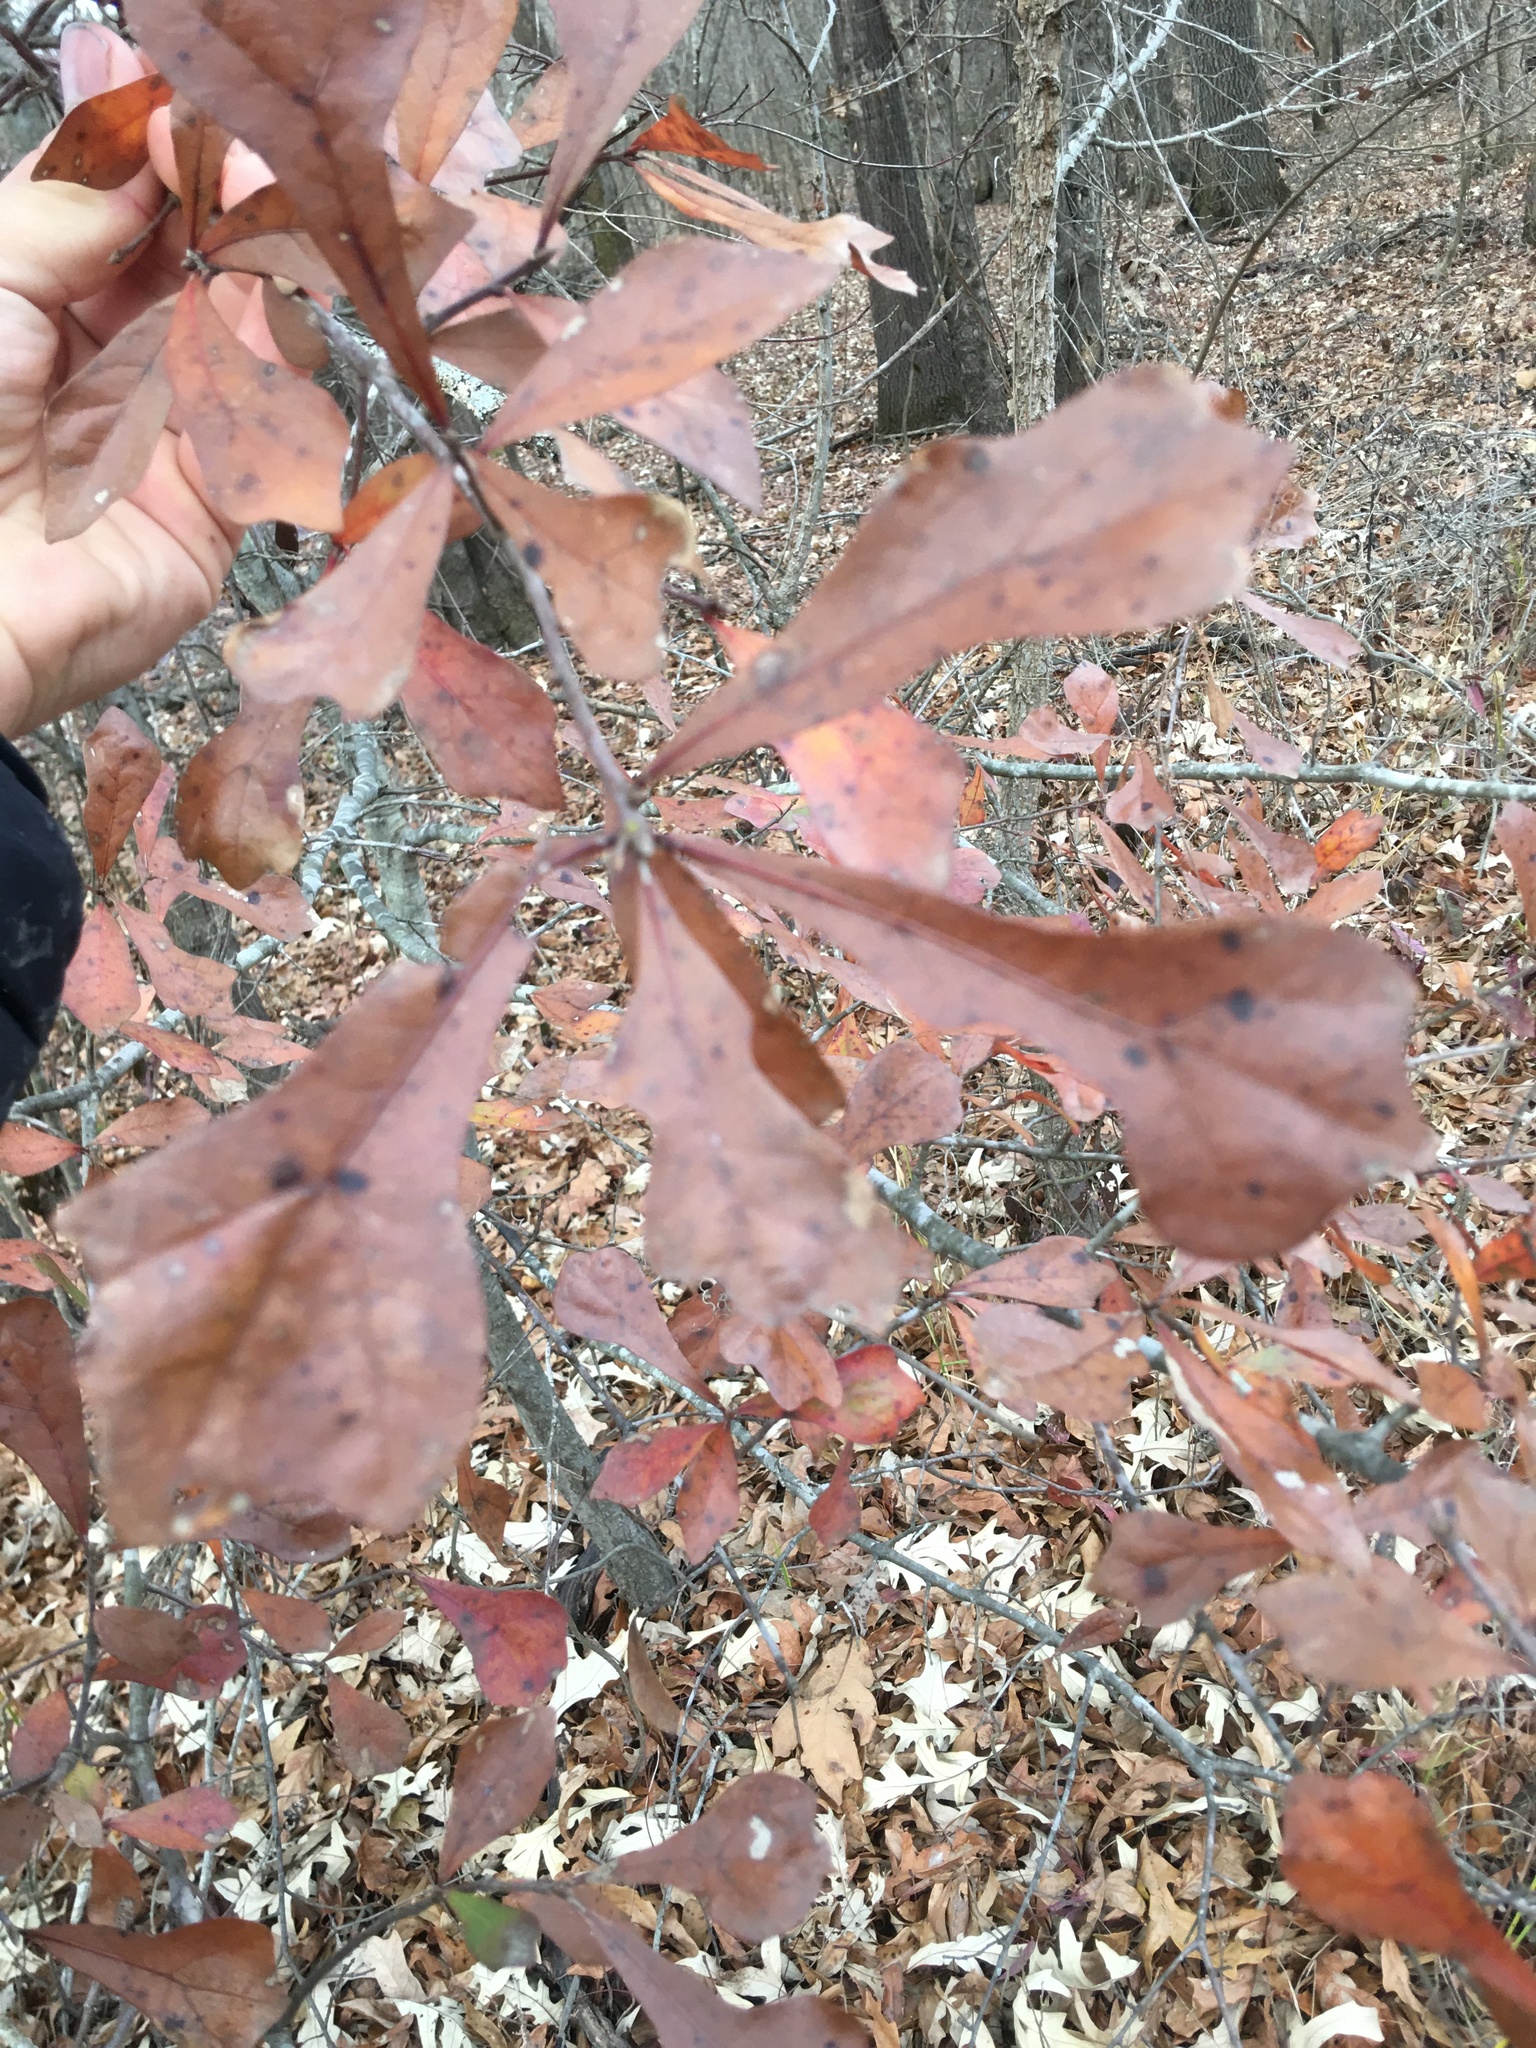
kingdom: Plantae
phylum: Tracheophyta
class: Magnoliopsida
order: Fagales
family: Fagaceae
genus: Quercus
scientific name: Quercus nigra
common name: Water oak
